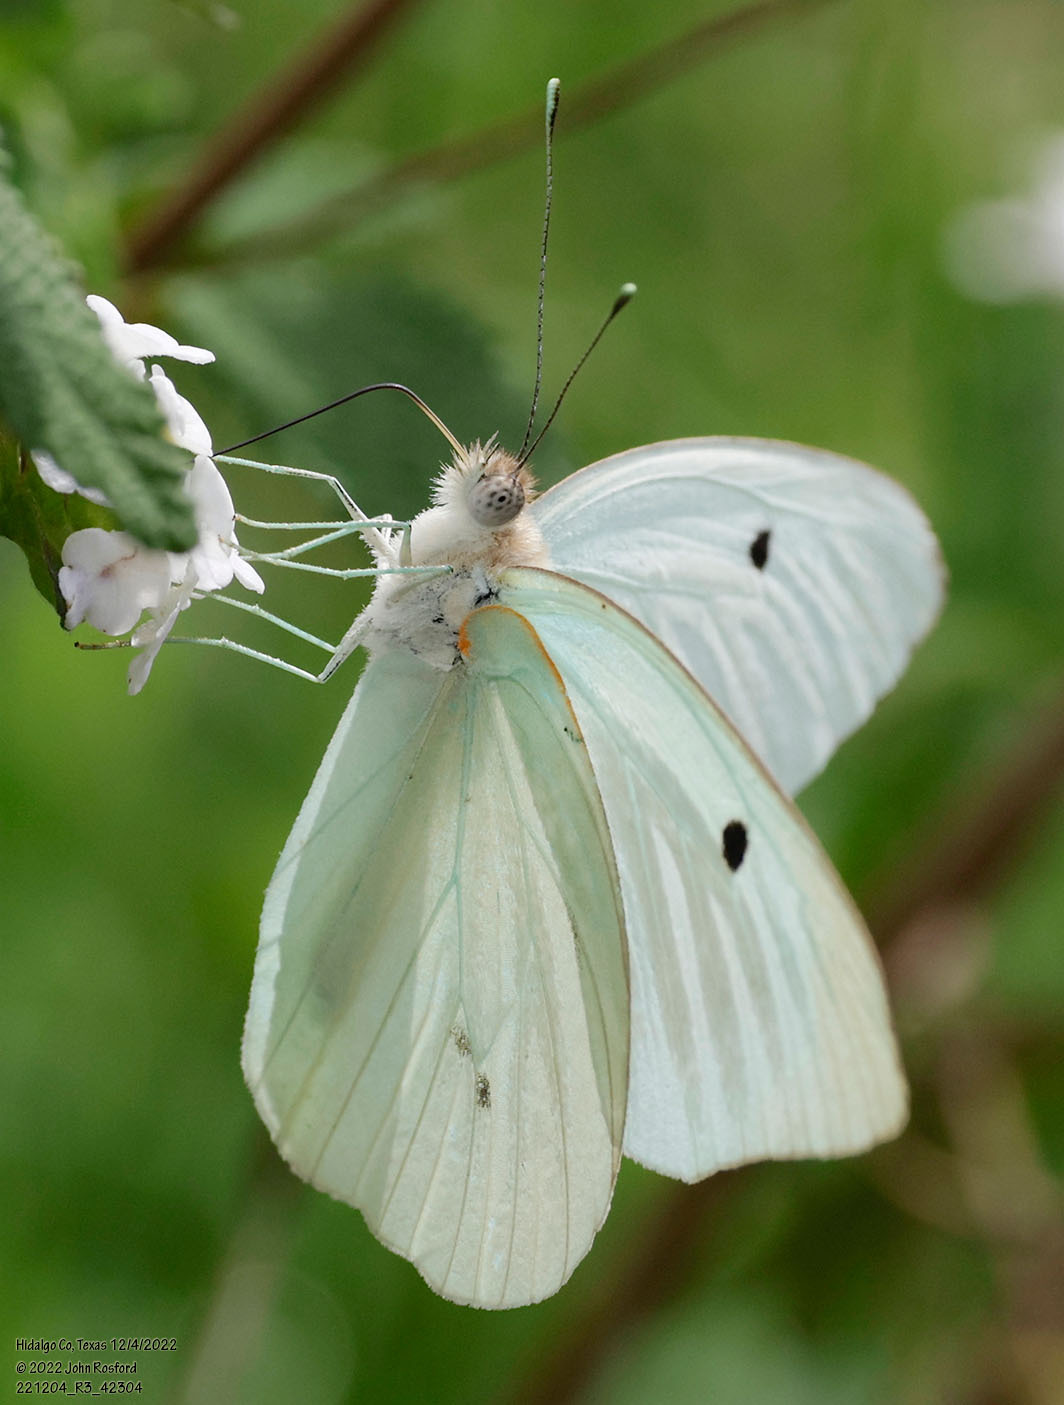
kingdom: Animalia
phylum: Arthropoda
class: Insecta
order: Lepidoptera
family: Pieridae
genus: Ganyra
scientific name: Ganyra josephina
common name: Giant white
